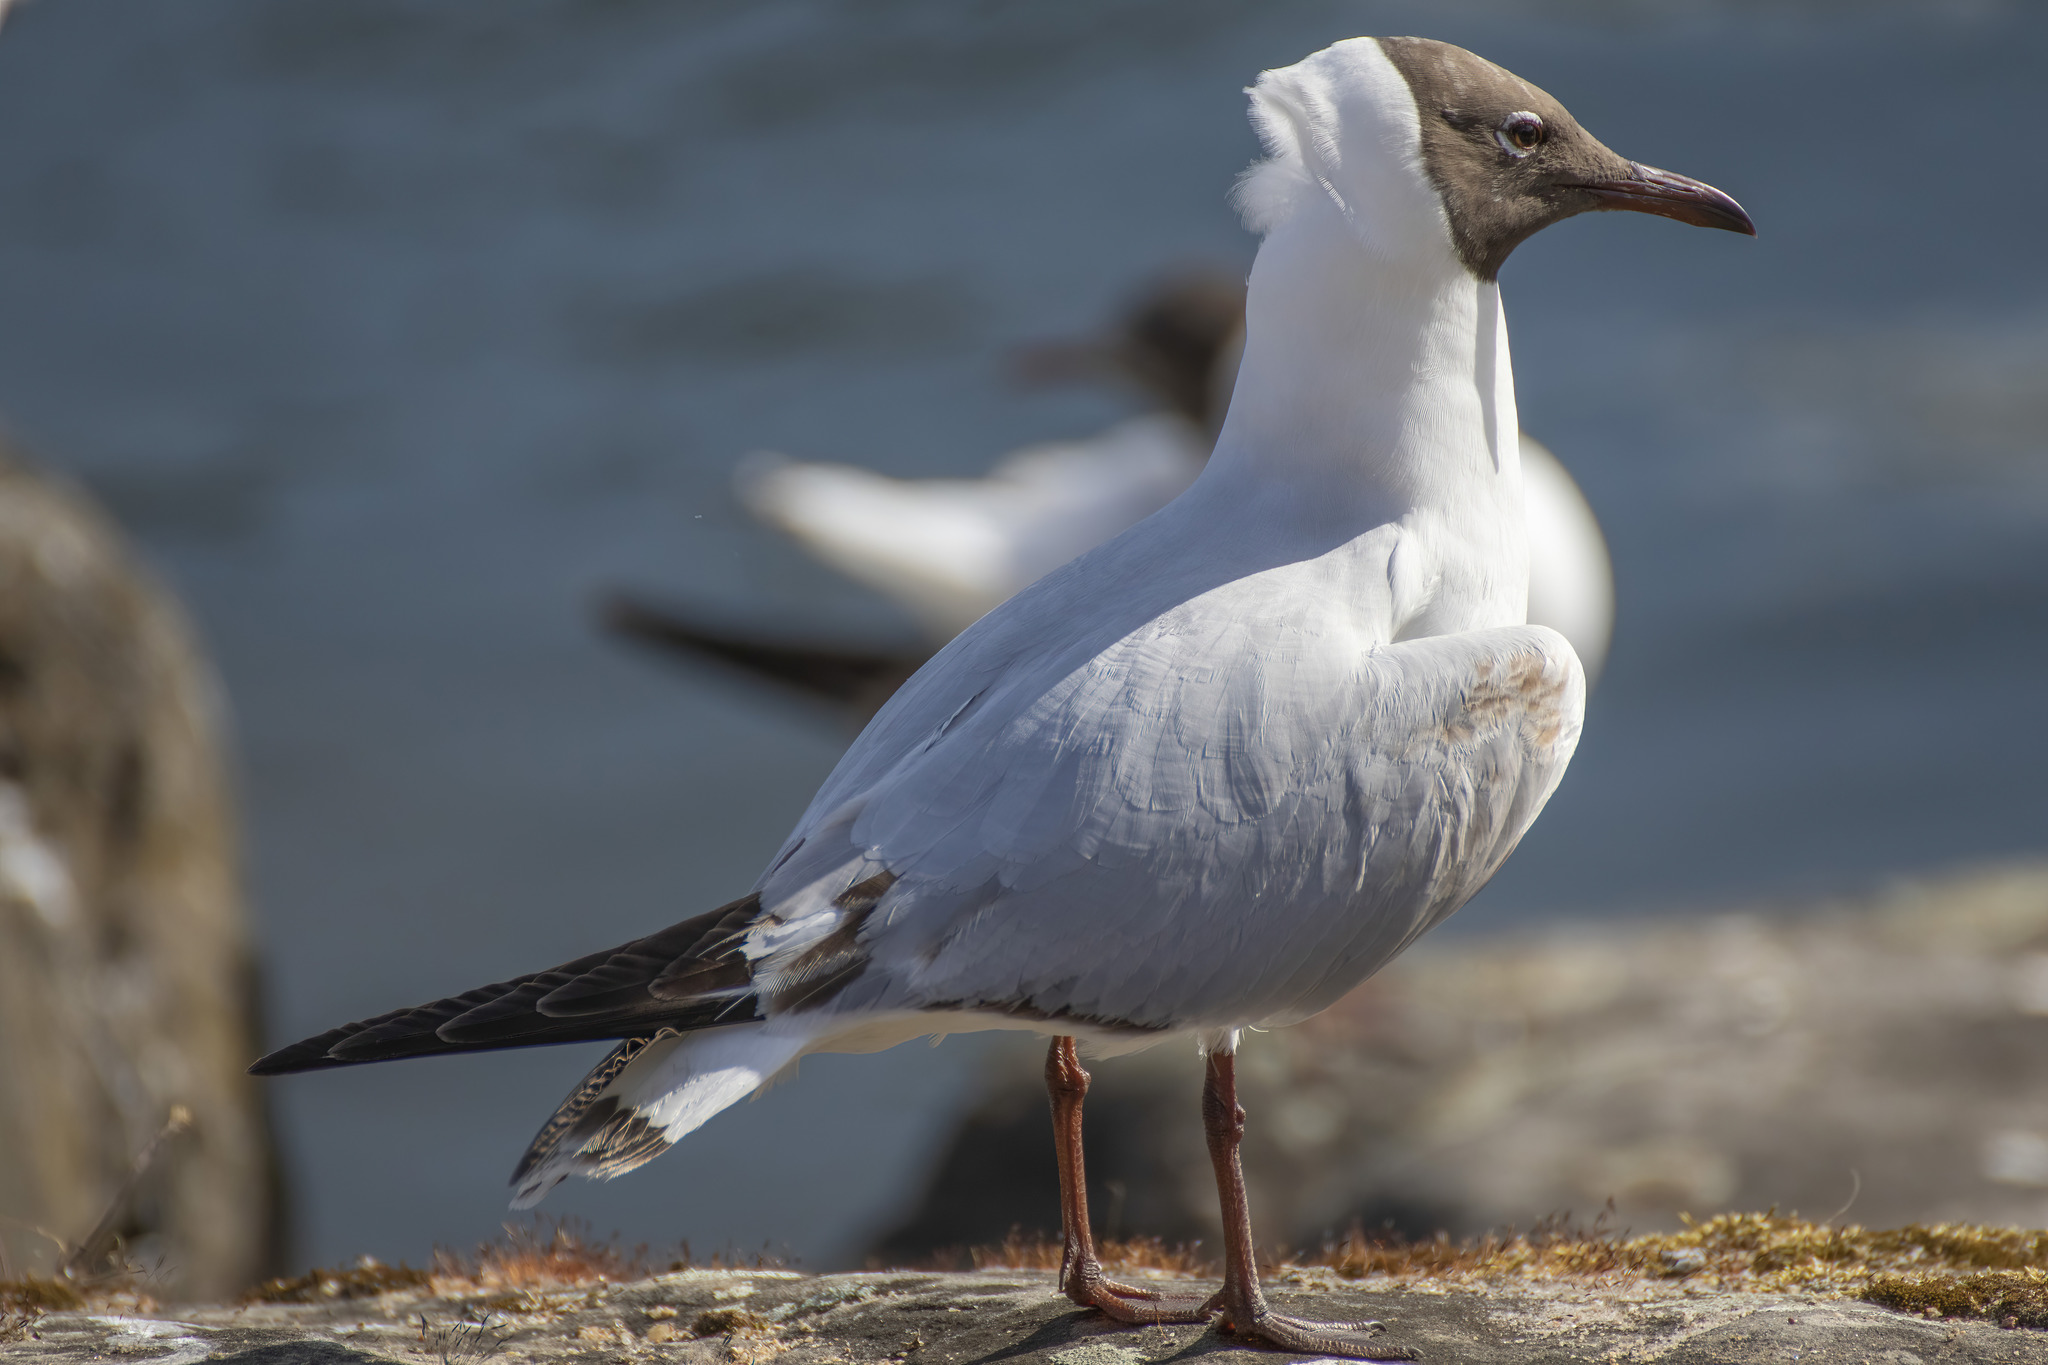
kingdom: Animalia
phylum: Chordata
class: Aves
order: Charadriiformes
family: Laridae
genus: Chroicocephalus
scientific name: Chroicocephalus ridibundus
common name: Black-headed gull
